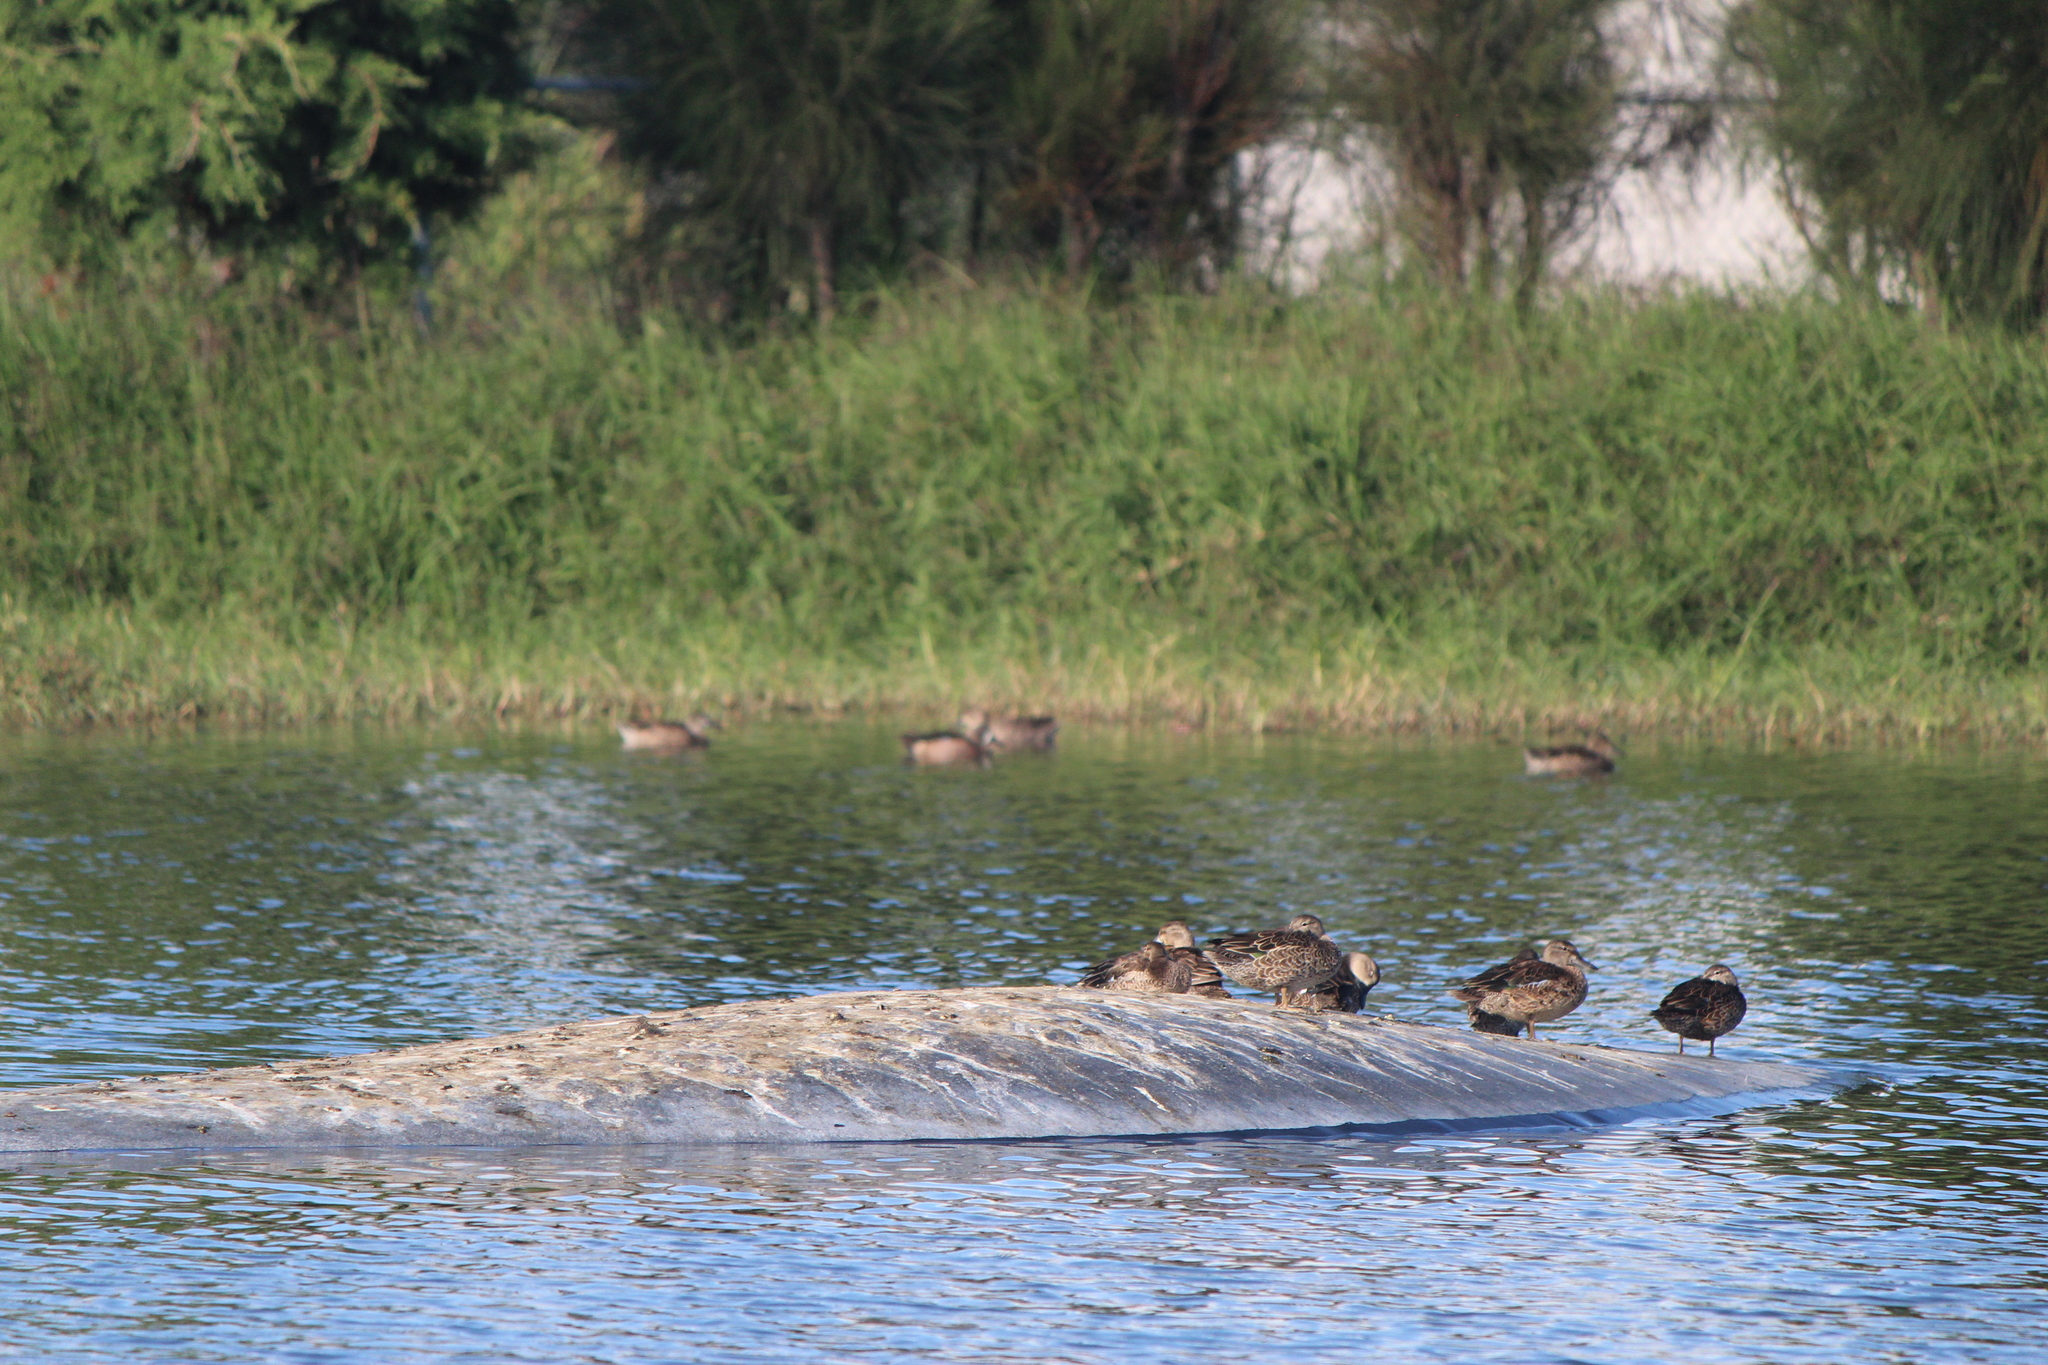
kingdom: Animalia
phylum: Chordata
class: Aves
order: Anseriformes
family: Anatidae
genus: Anas
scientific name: Anas diazi
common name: Mexican duck
